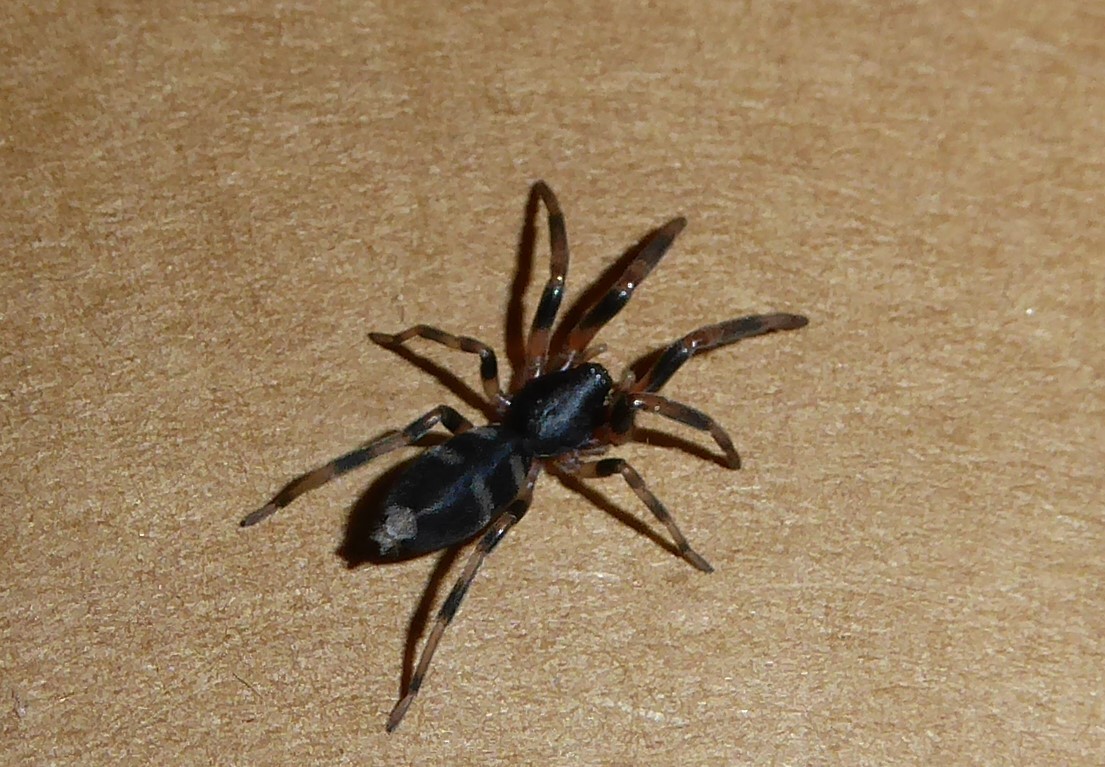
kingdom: Animalia
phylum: Arthropoda
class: Arachnida
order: Araneae
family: Lamponidae
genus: Lampona
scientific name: Lampona cylindrata
